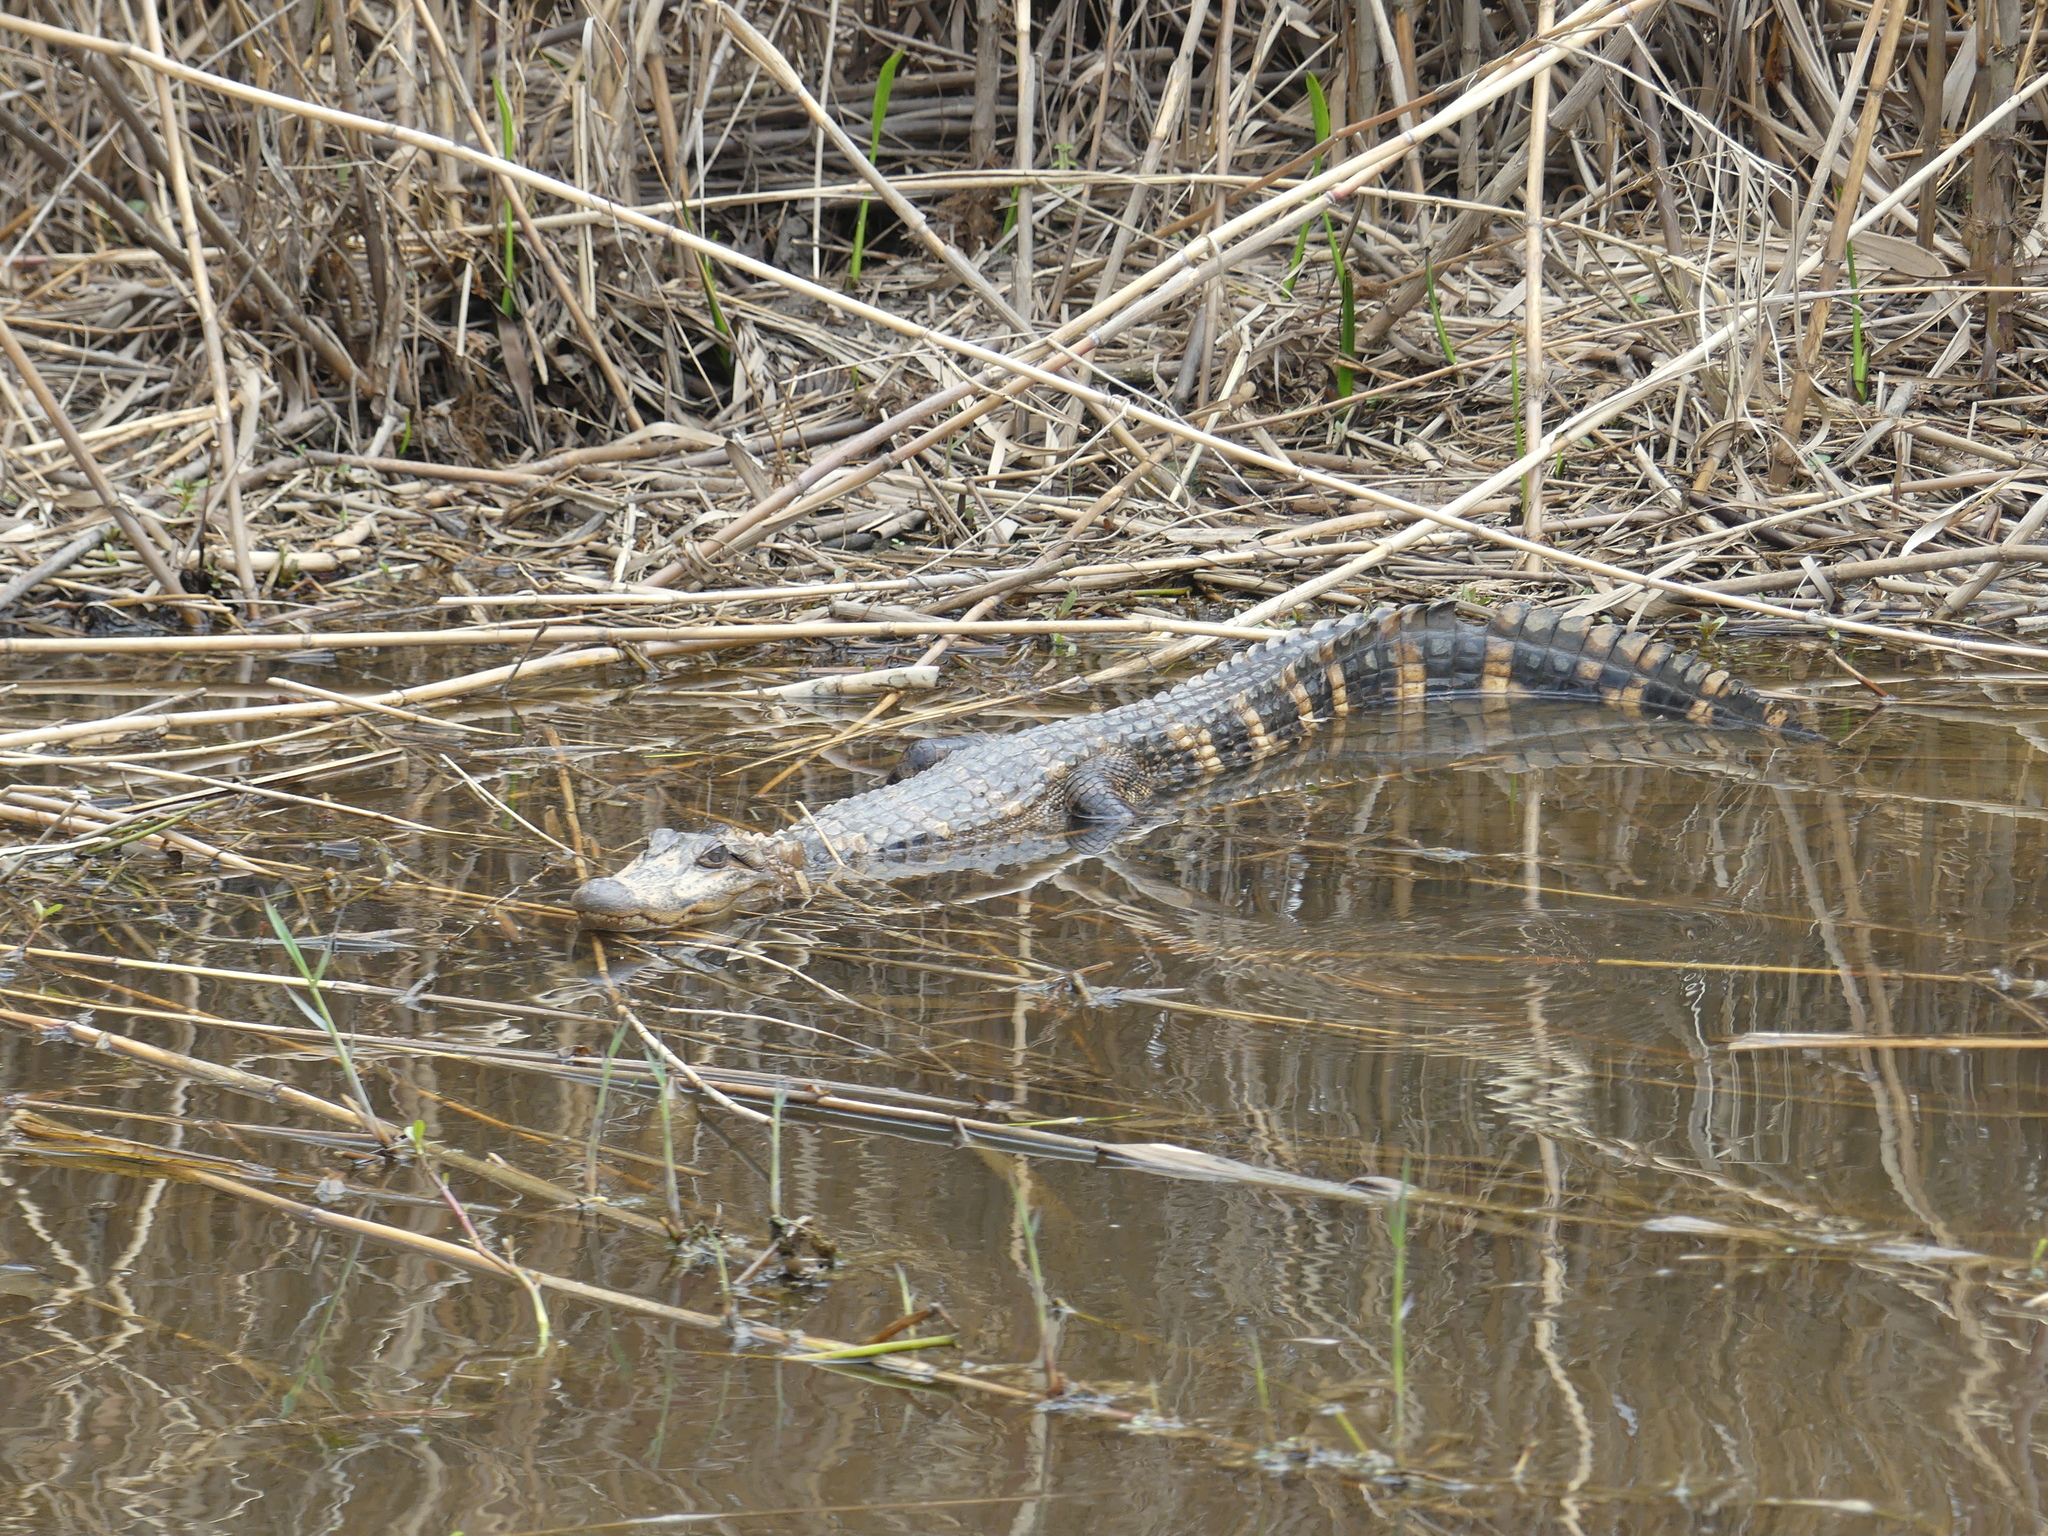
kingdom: Animalia
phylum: Chordata
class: Crocodylia
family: Alligatoridae
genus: Alligator
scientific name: Alligator mississippiensis
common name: American alligator
